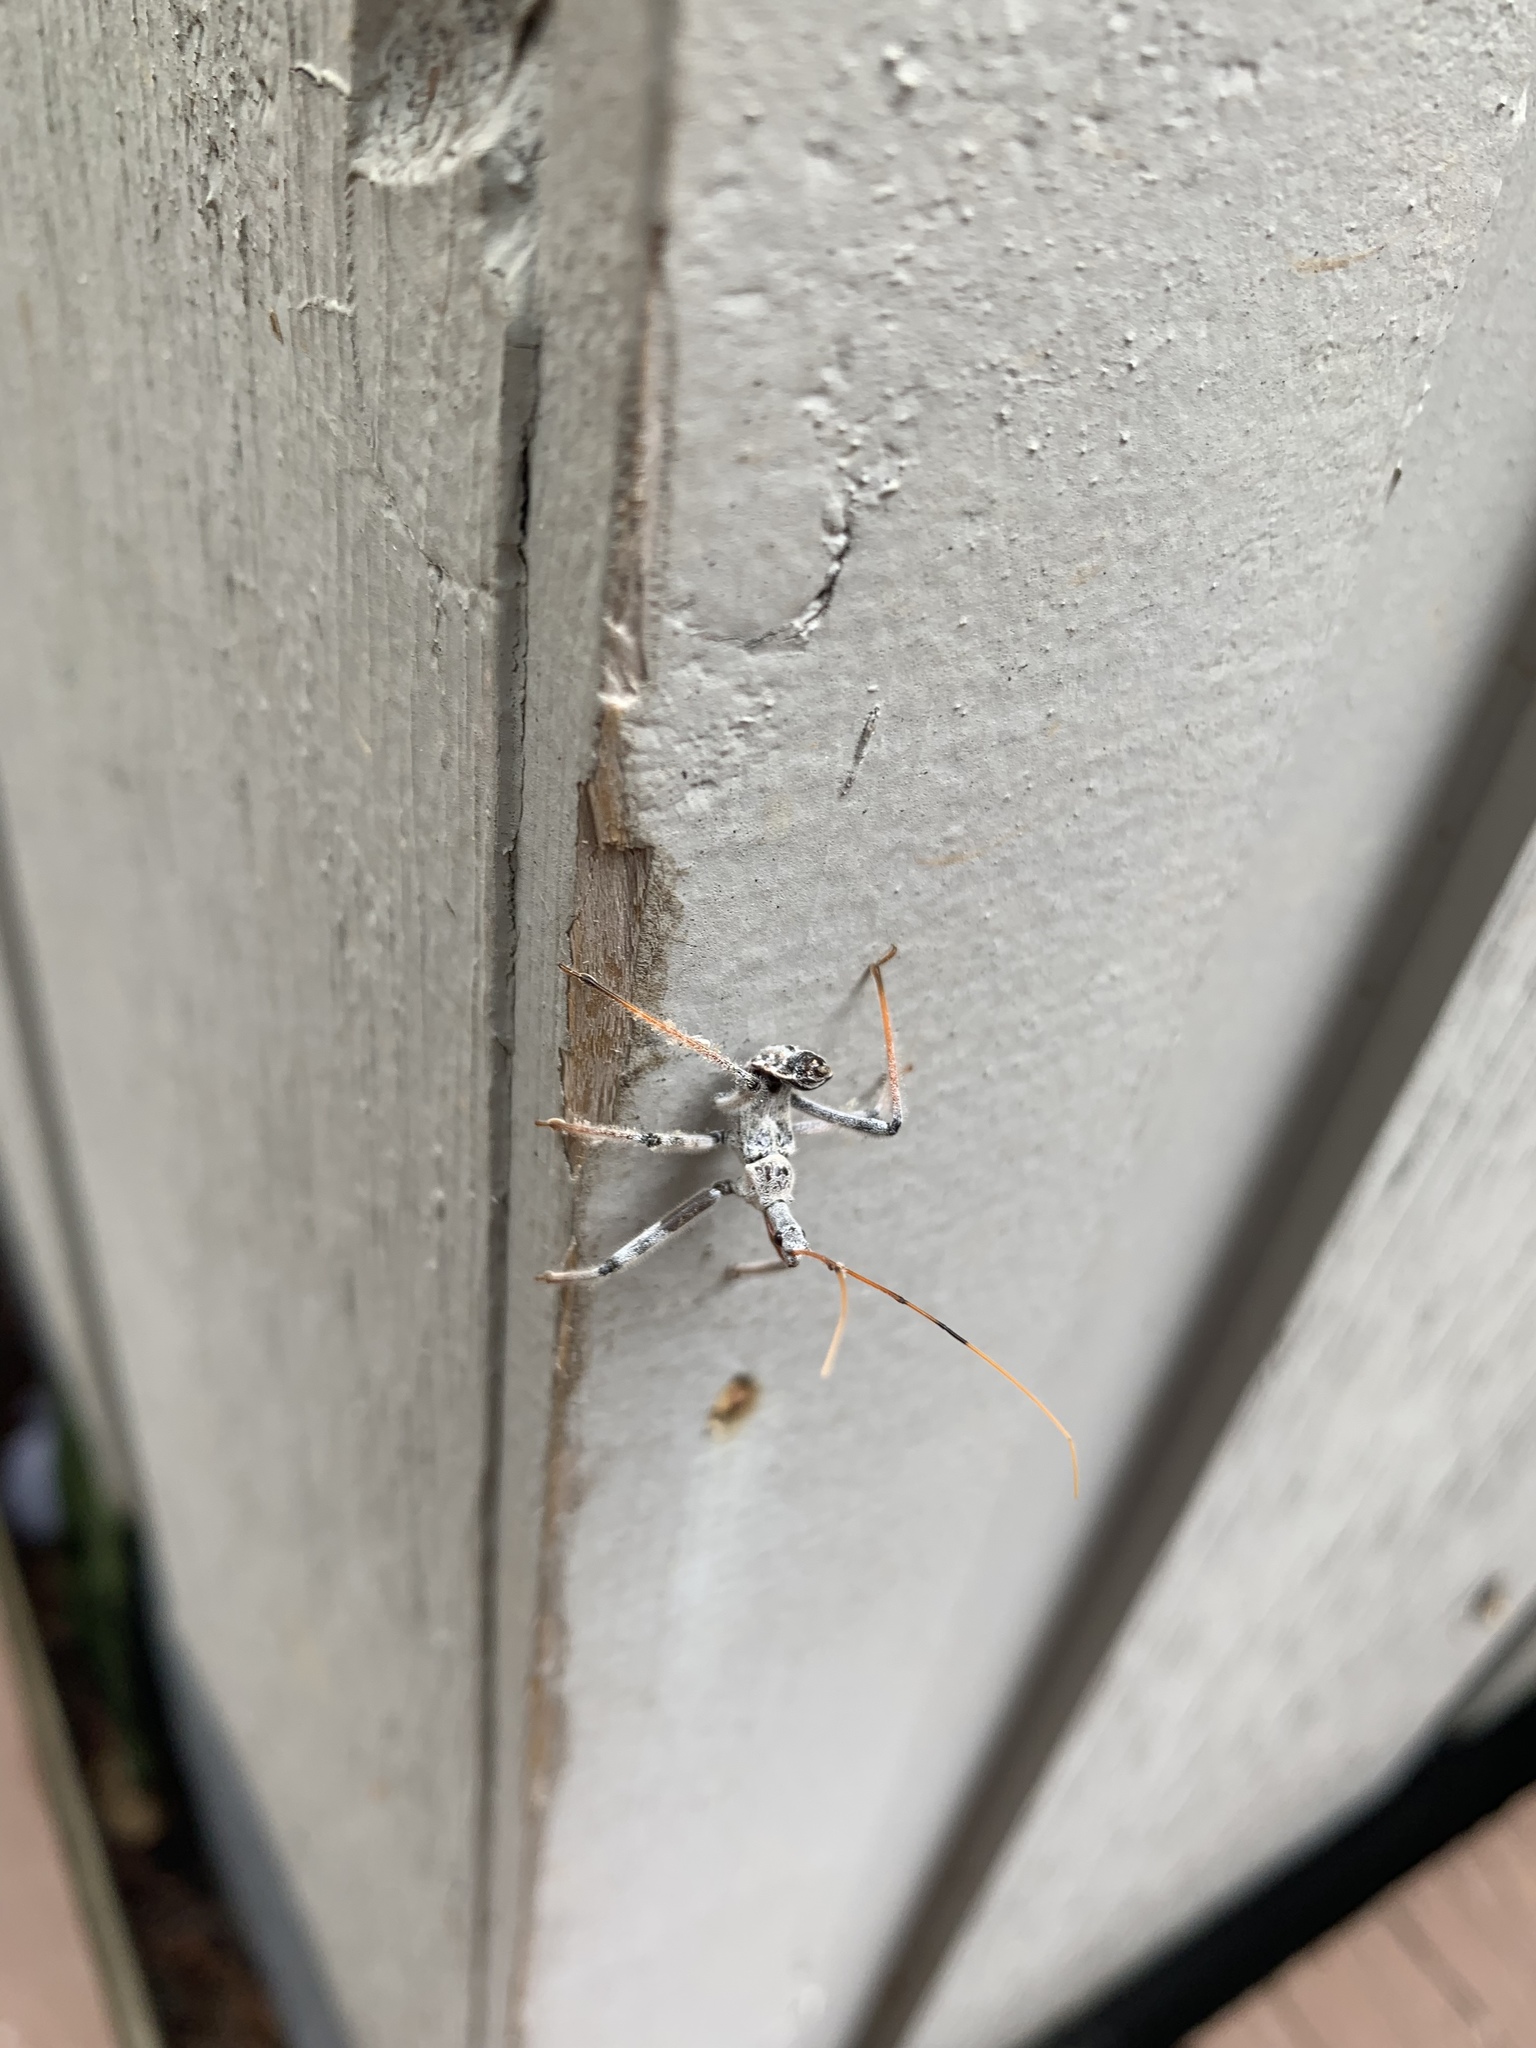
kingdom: Animalia
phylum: Arthropoda
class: Insecta
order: Hemiptera
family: Reduviidae
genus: Arilus
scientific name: Arilus cristatus
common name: North american wheel bug
